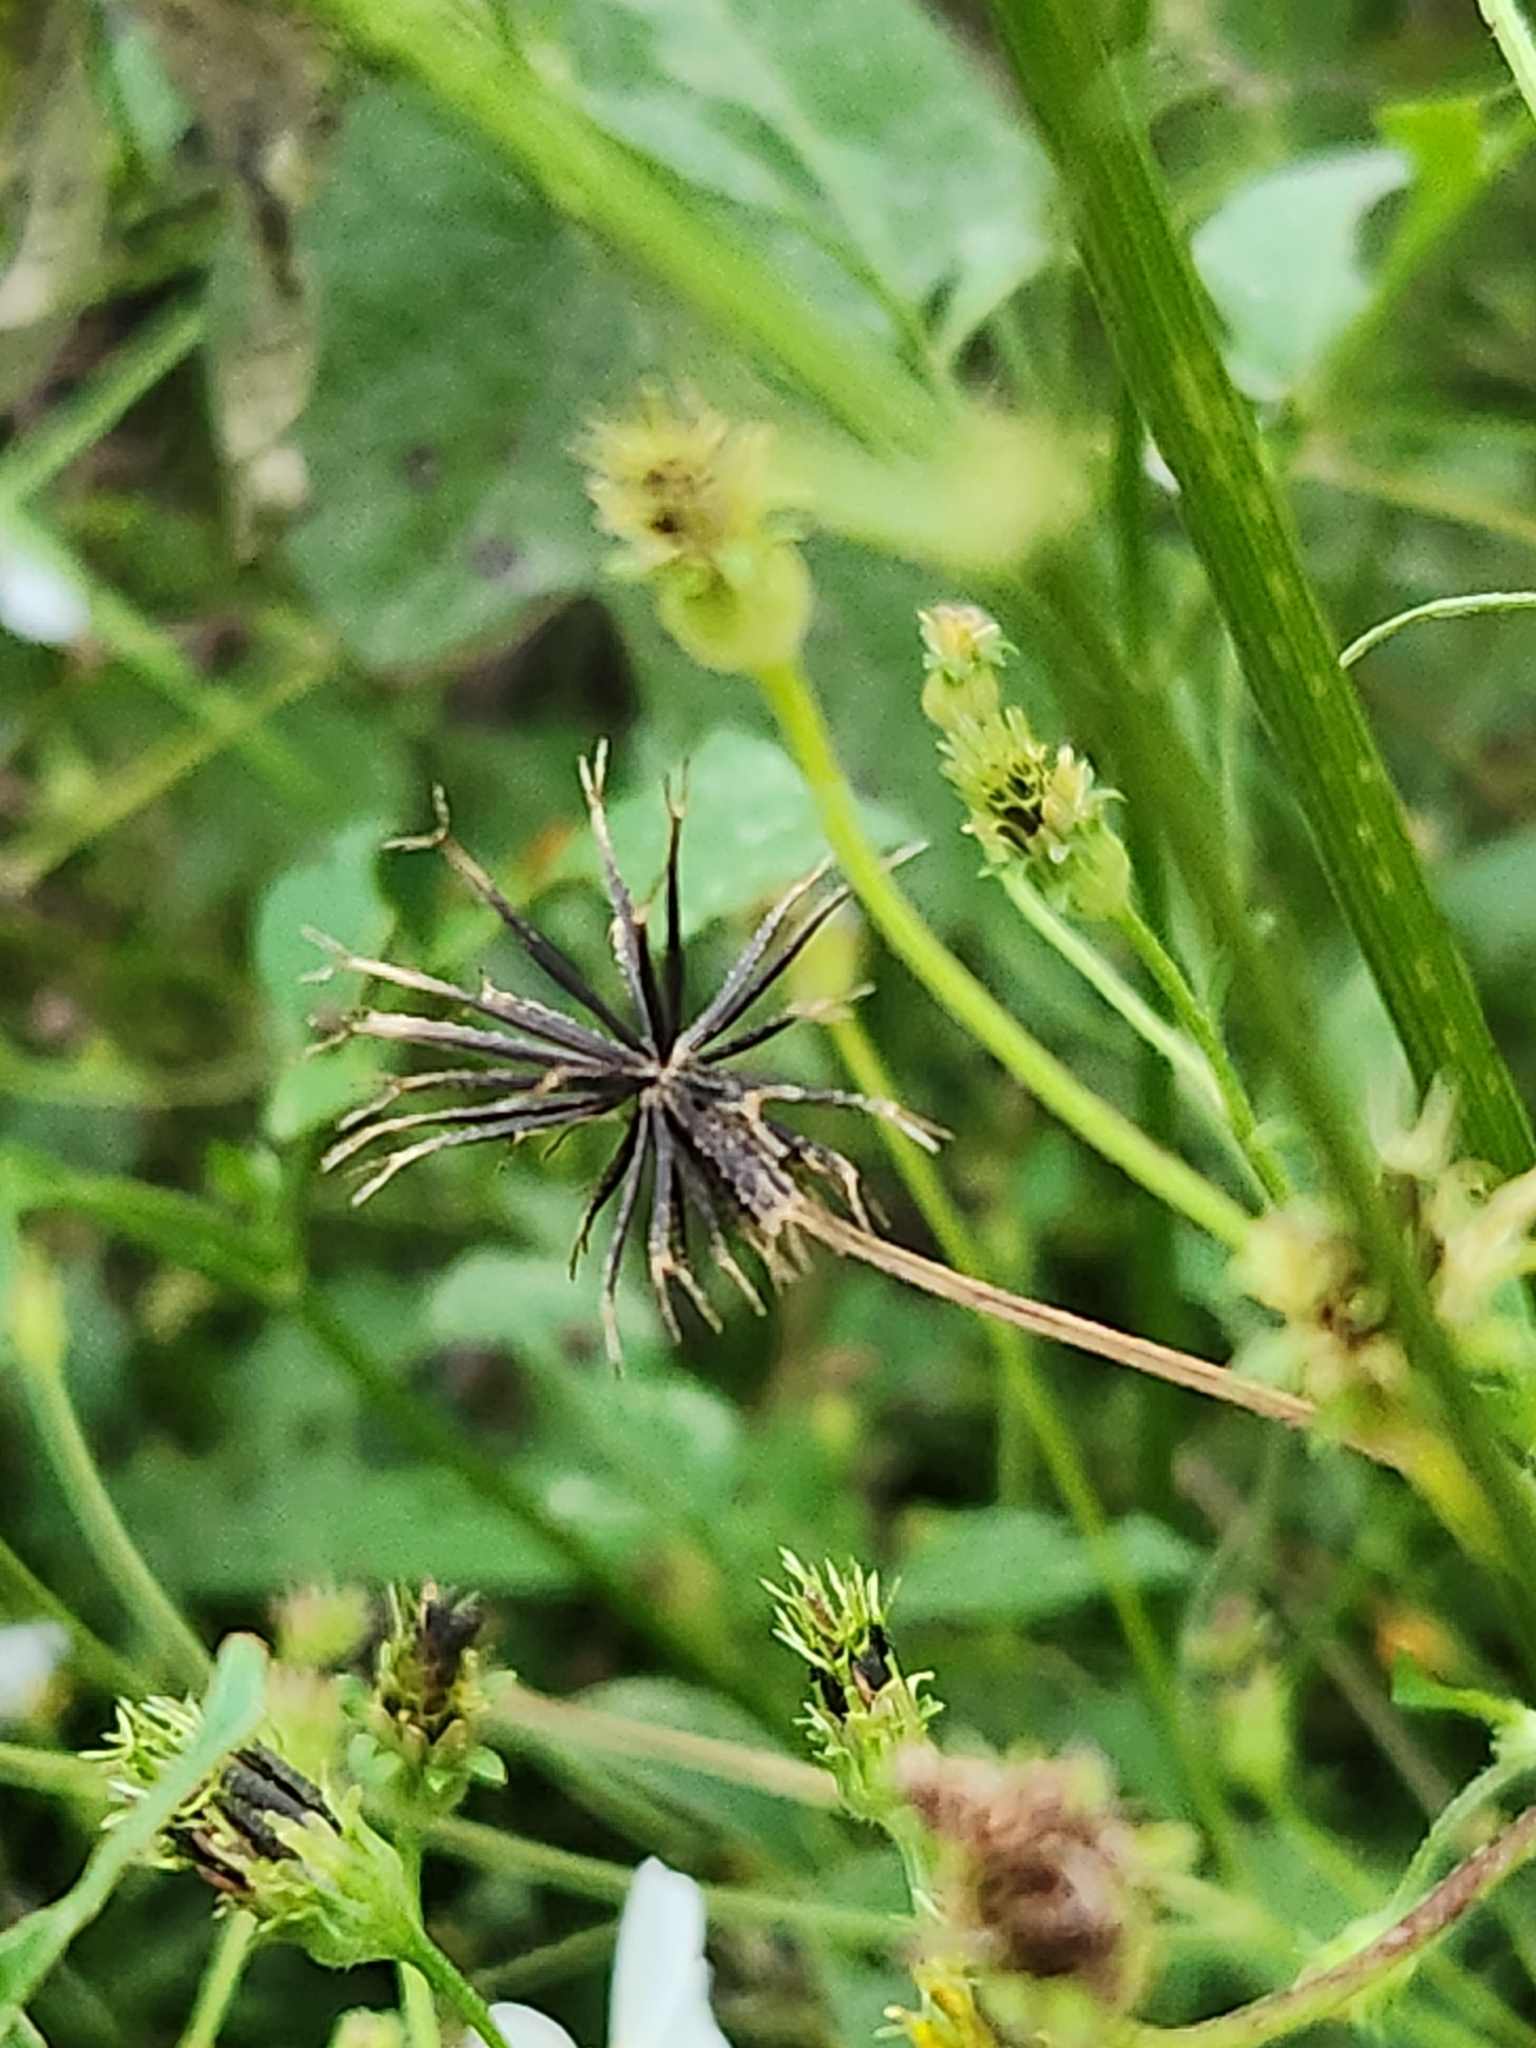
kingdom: Plantae
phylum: Tracheophyta
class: Magnoliopsida
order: Asterales
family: Asteraceae
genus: Bidens
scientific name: Bidens alba
